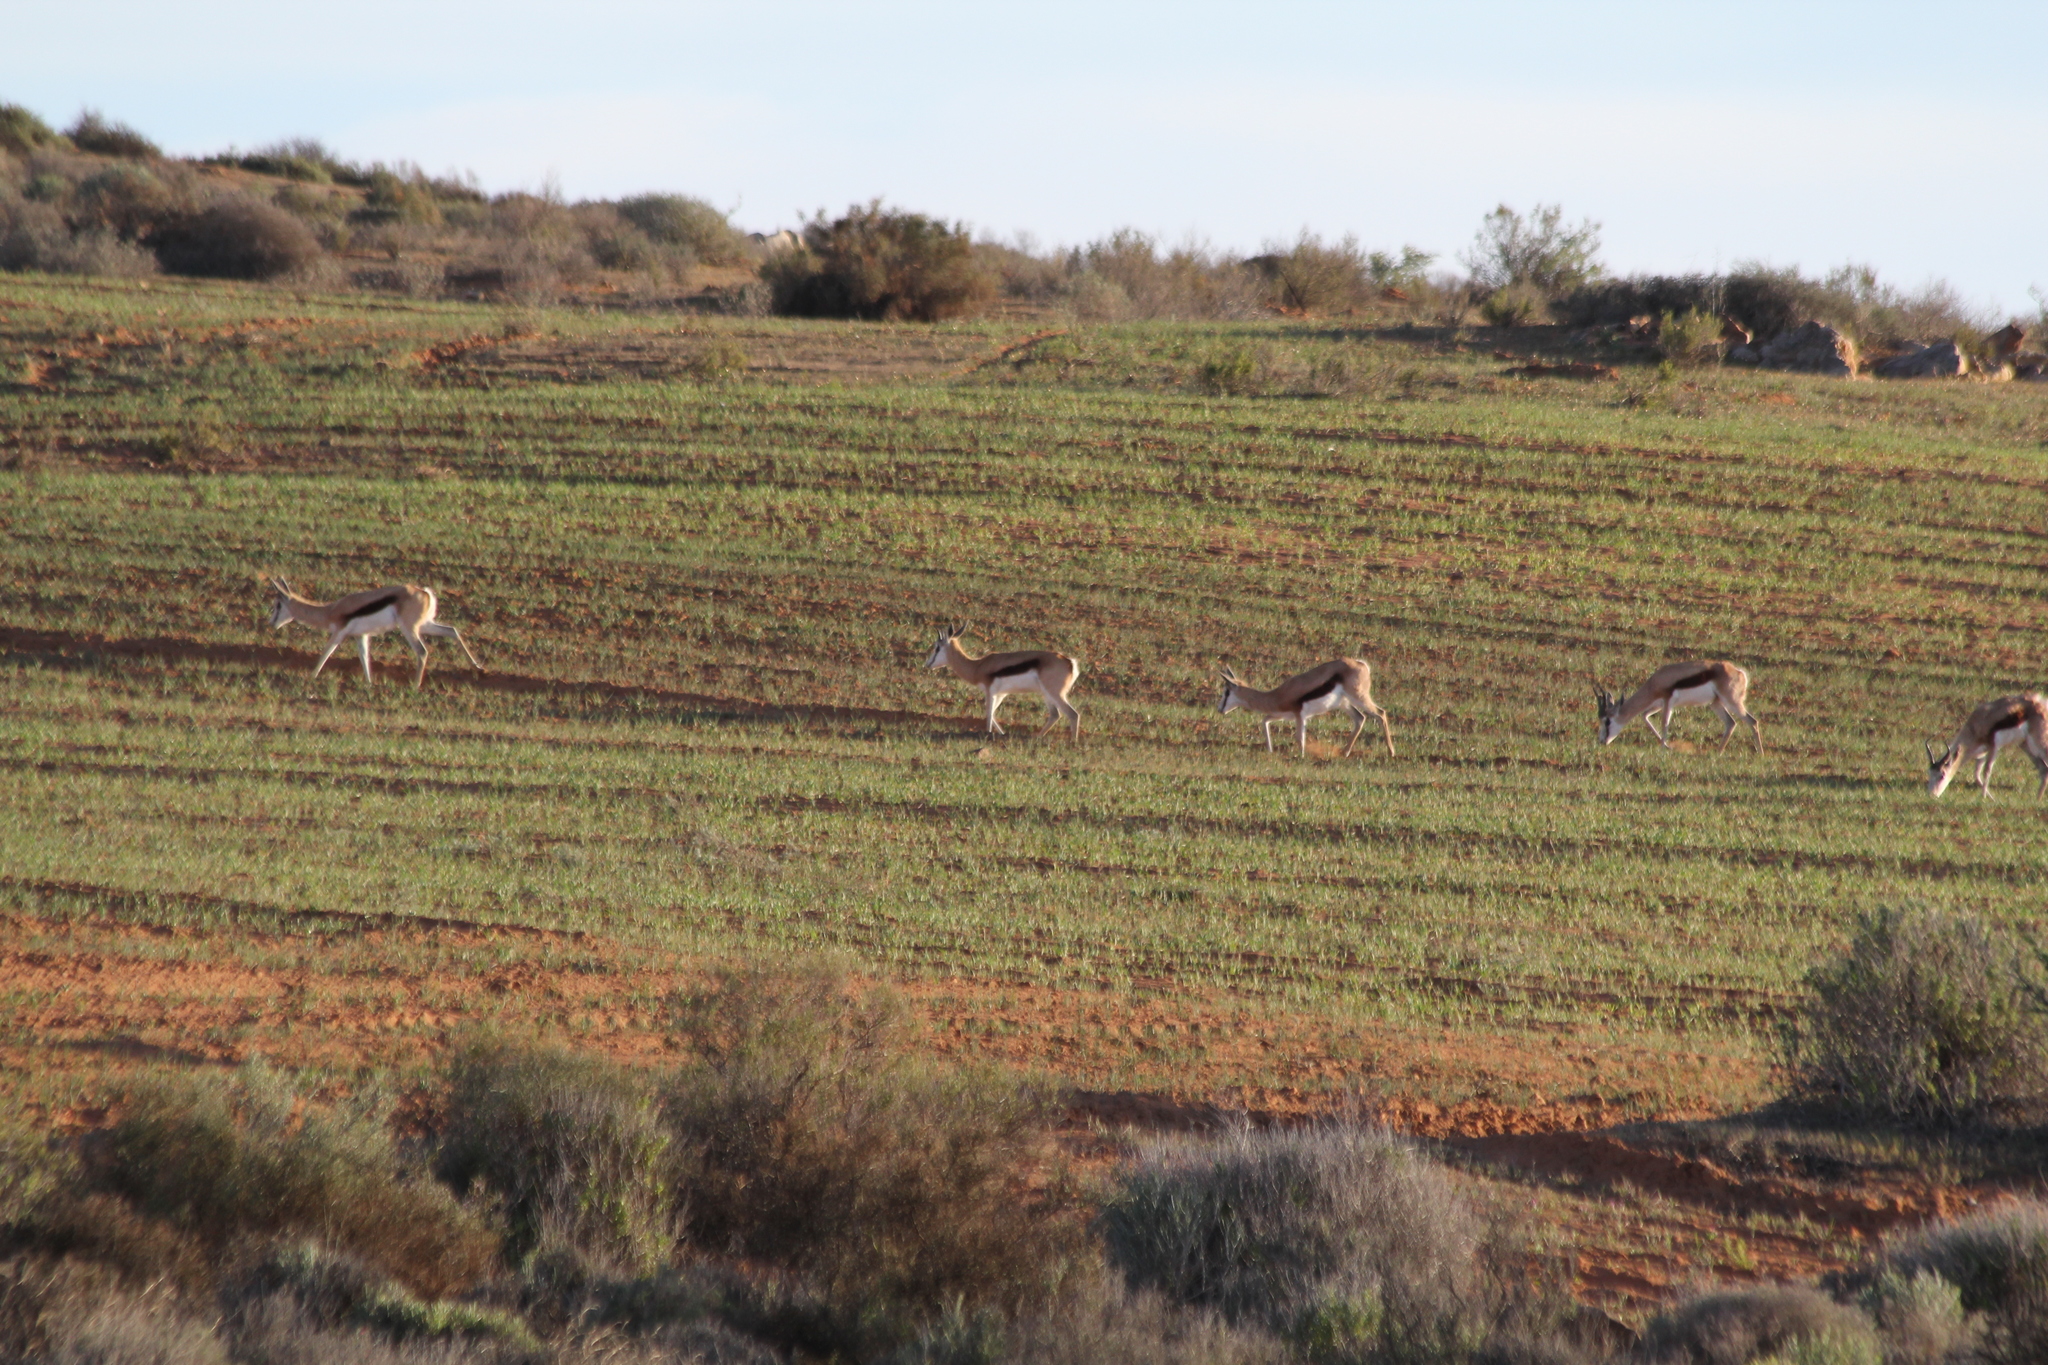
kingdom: Animalia
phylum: Chordata
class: Mammalia
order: Artiodactyla
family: Bovidae
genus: Antidorcas
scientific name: Antidorcas marsupialis
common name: Springbok
